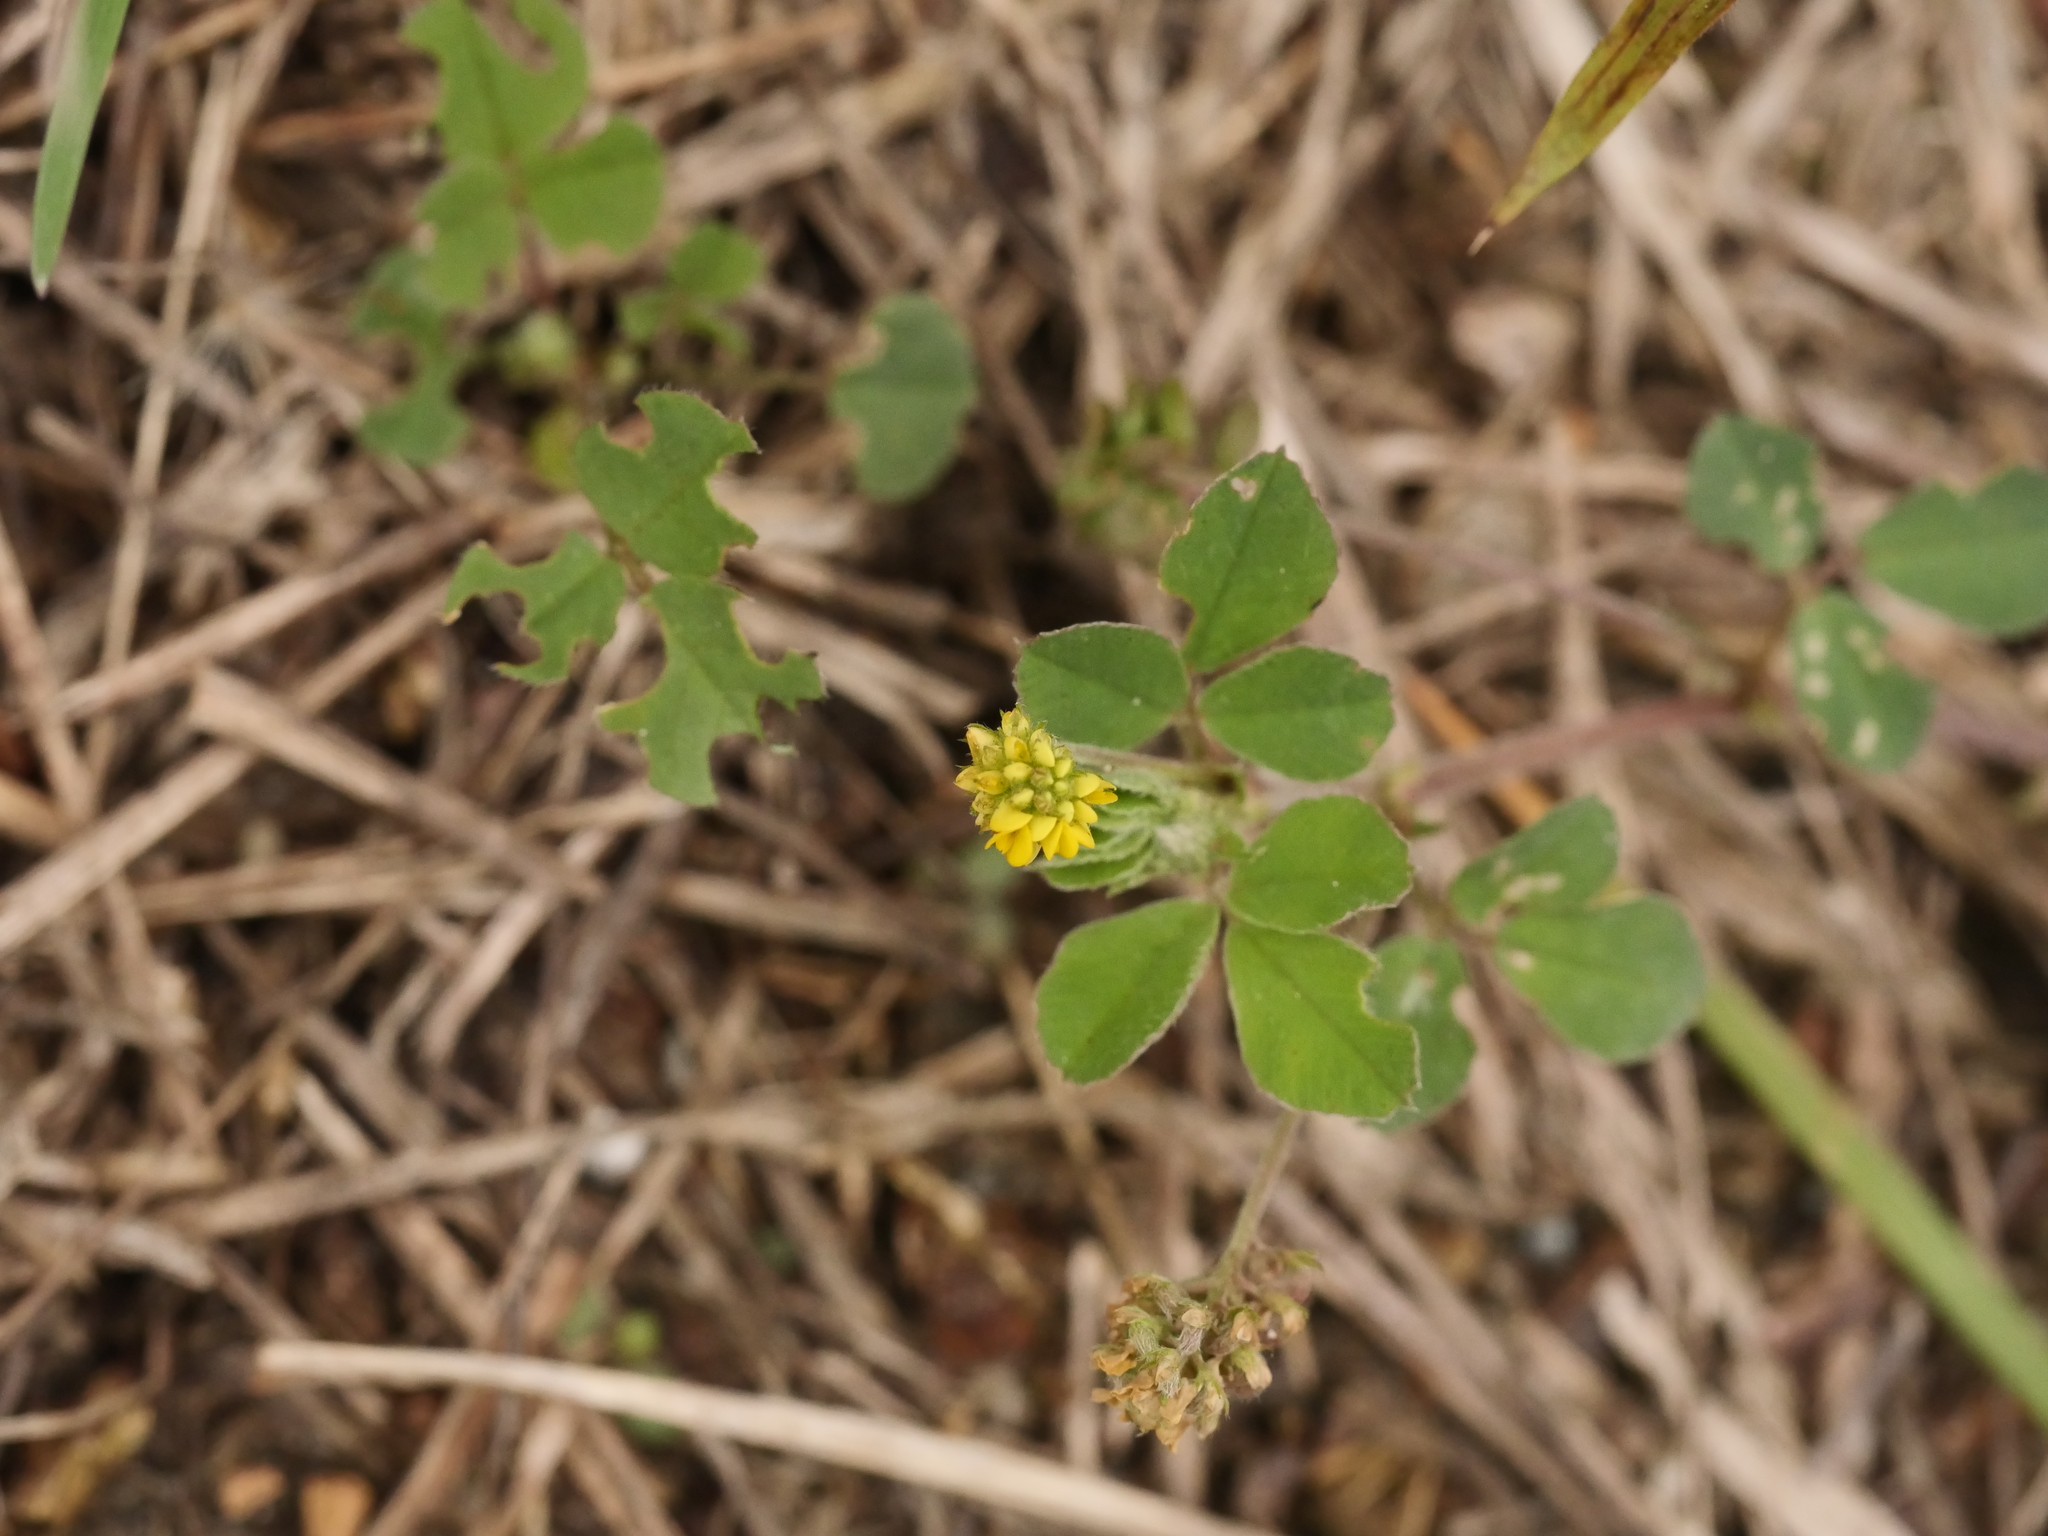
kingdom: Plantae
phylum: Tracheophyta
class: Magnoliopsida
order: Fabales
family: Fabaceae
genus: Medicago
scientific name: Medicago lupulina
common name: Black medick
